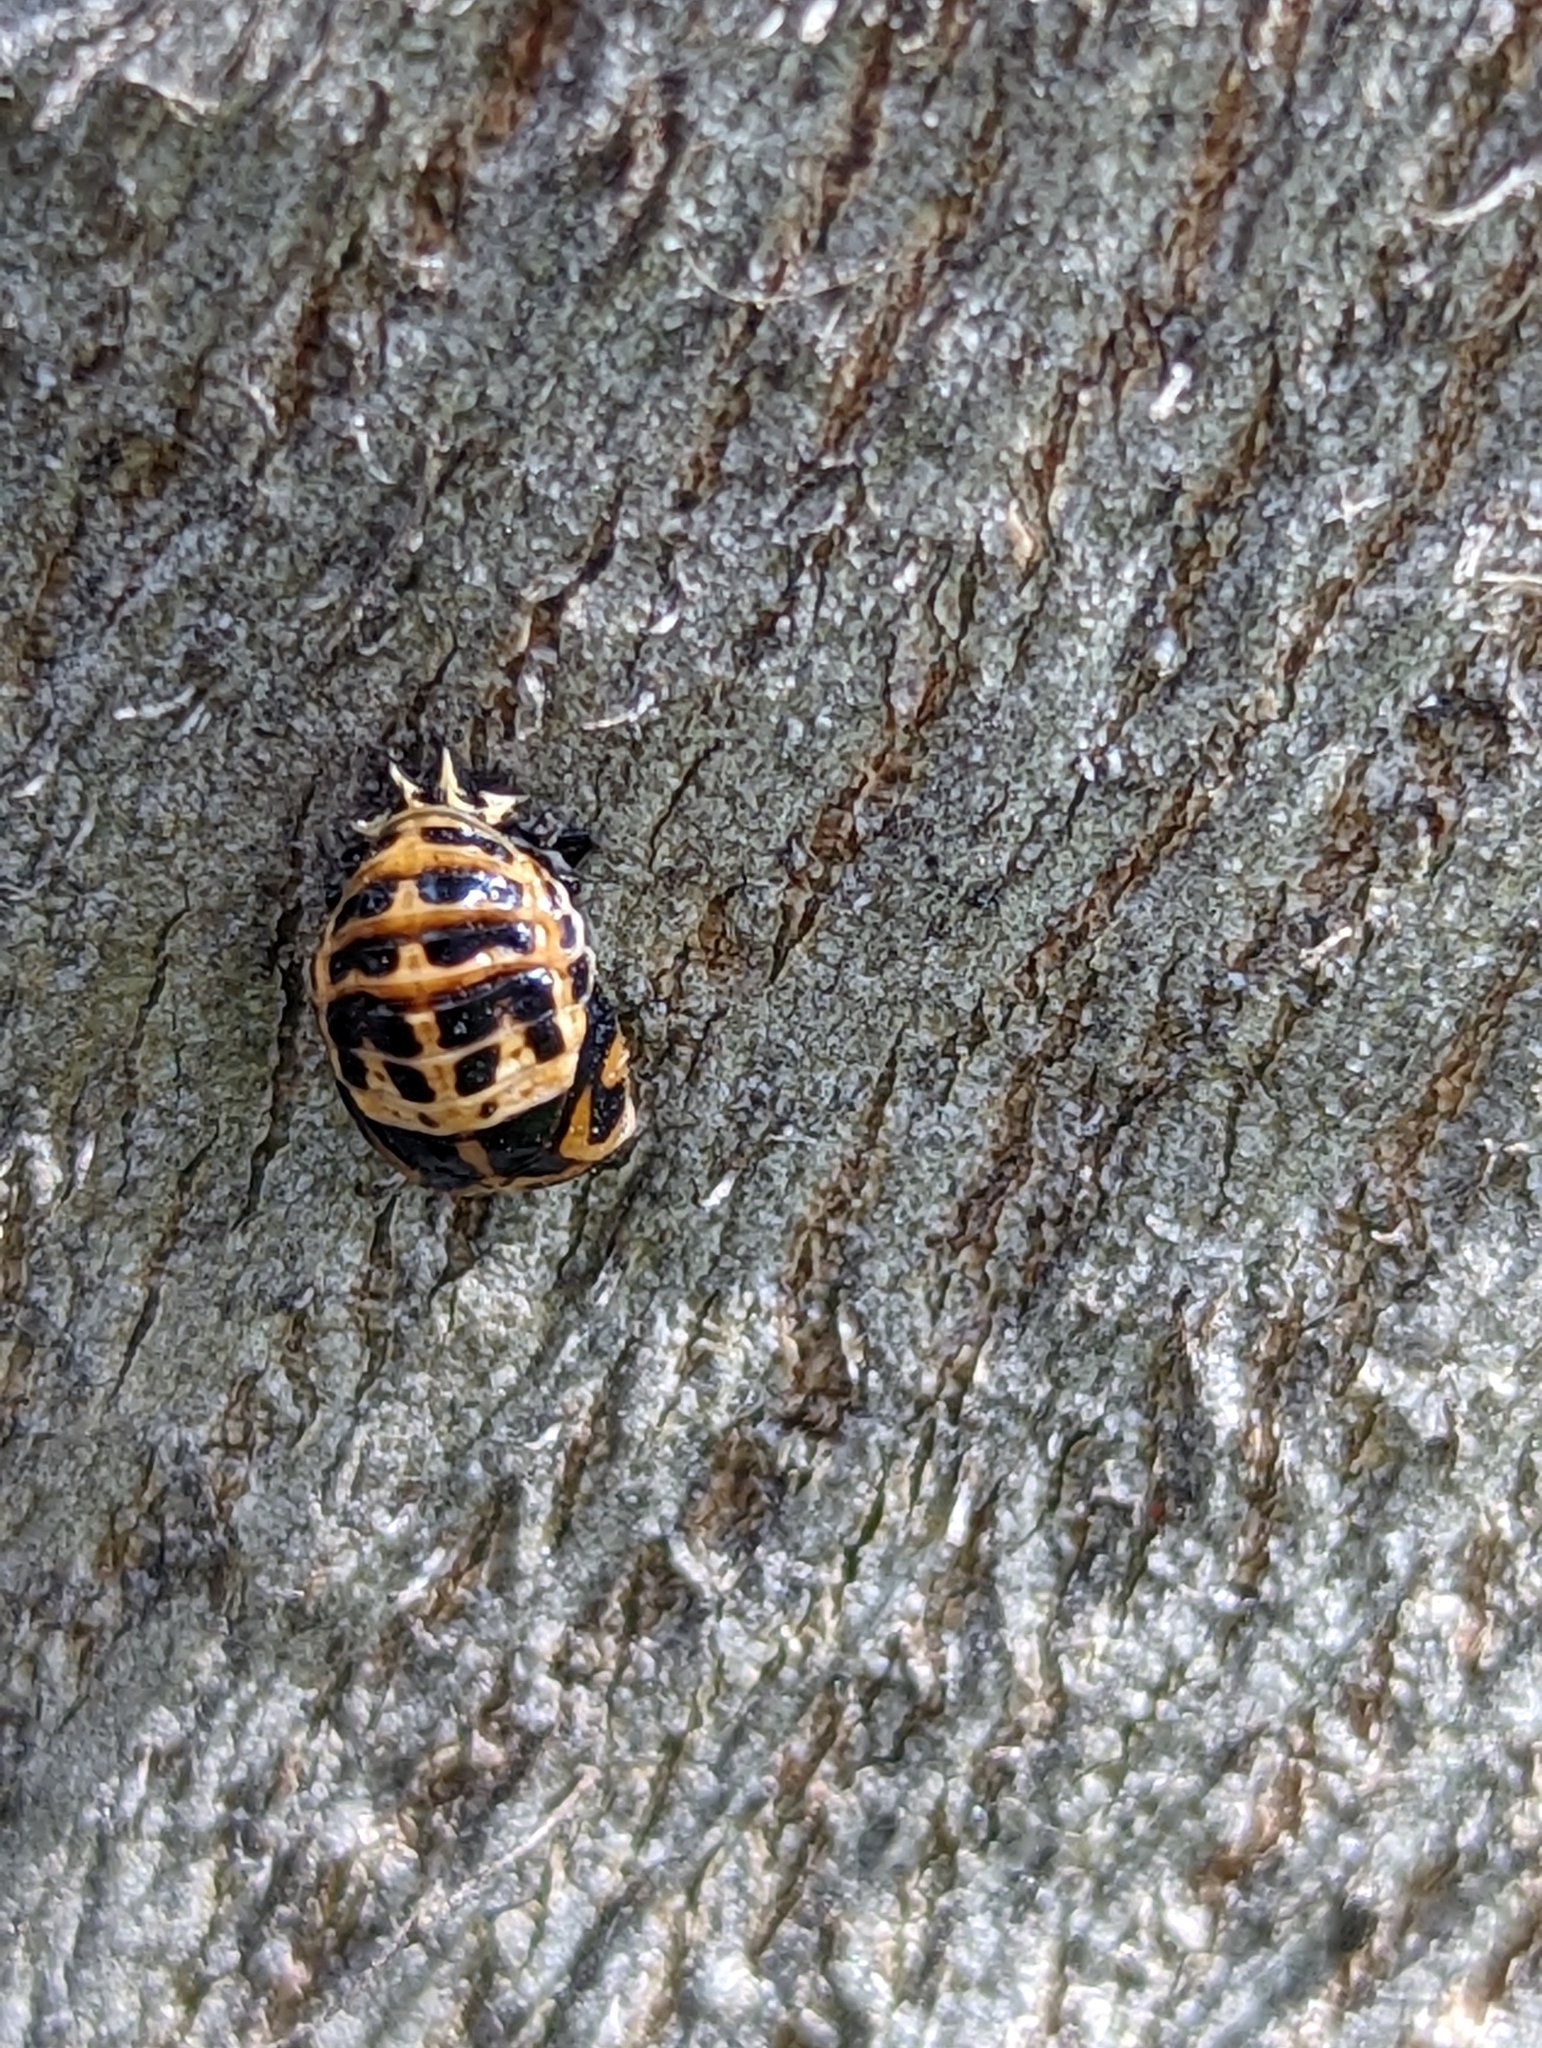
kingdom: Animalia
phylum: Arthropoda
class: Insecta
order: Coleoptera
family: Coccinellidae
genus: Harmonia
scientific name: Harmonia conformis
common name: Common spotted ladybird beetle
